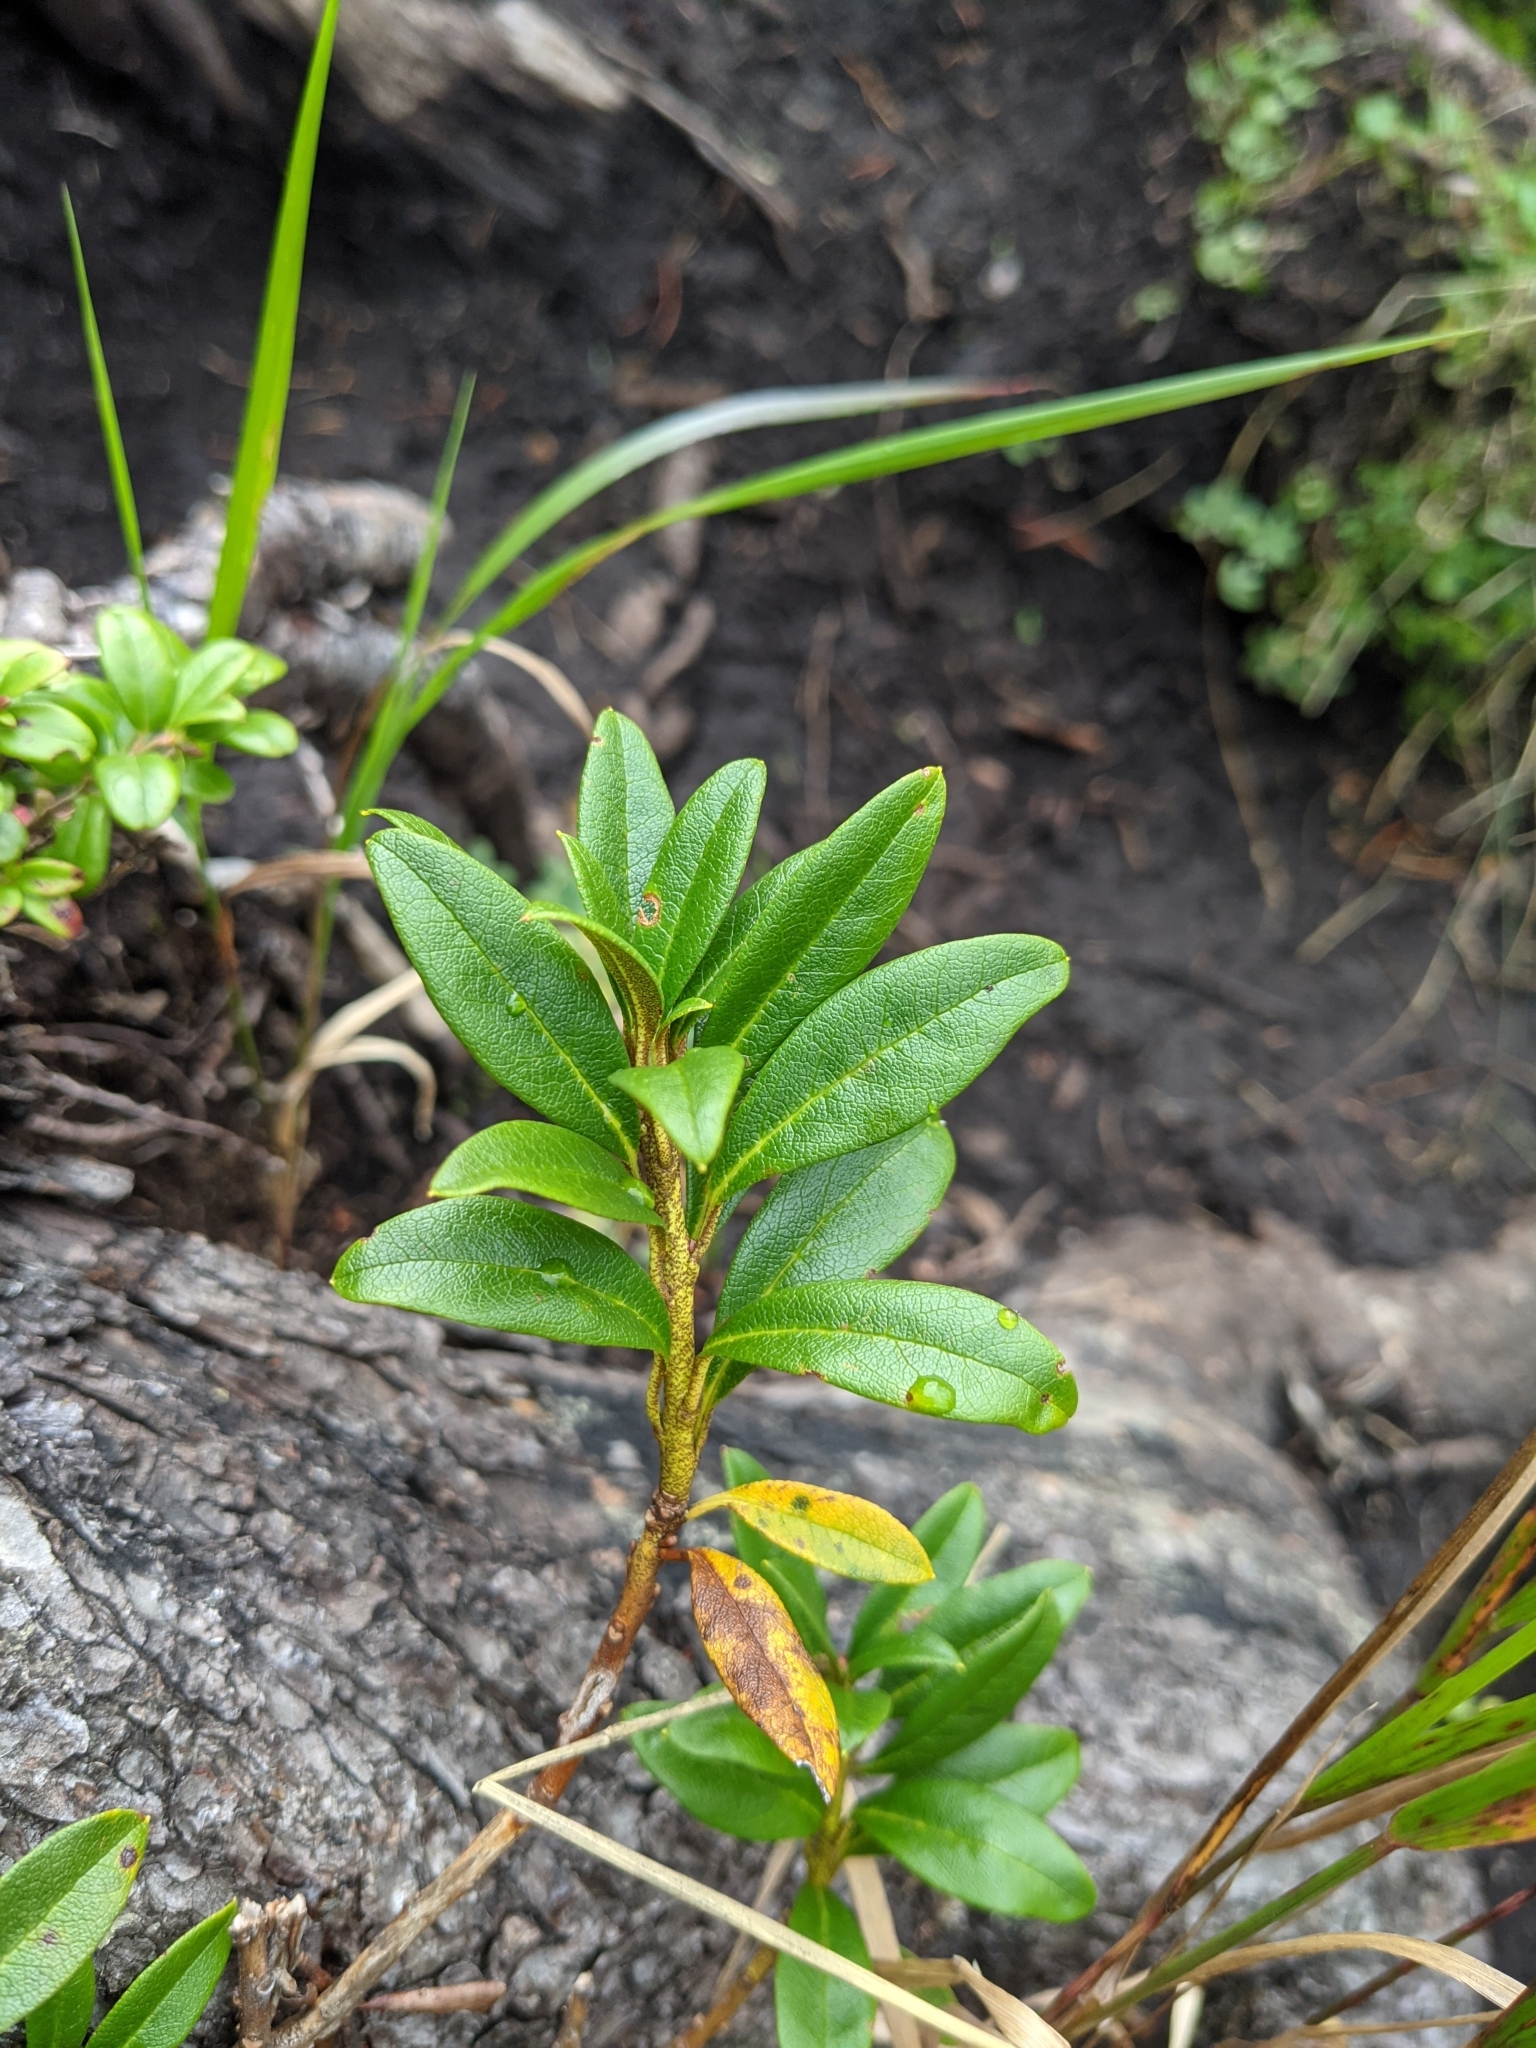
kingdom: Plantae
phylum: Tracheophyta
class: Magnoliopsida
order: Ericales
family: Ericaceae
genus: Rhododendron
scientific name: Rhododendron ferrugineum
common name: Alpenrose
